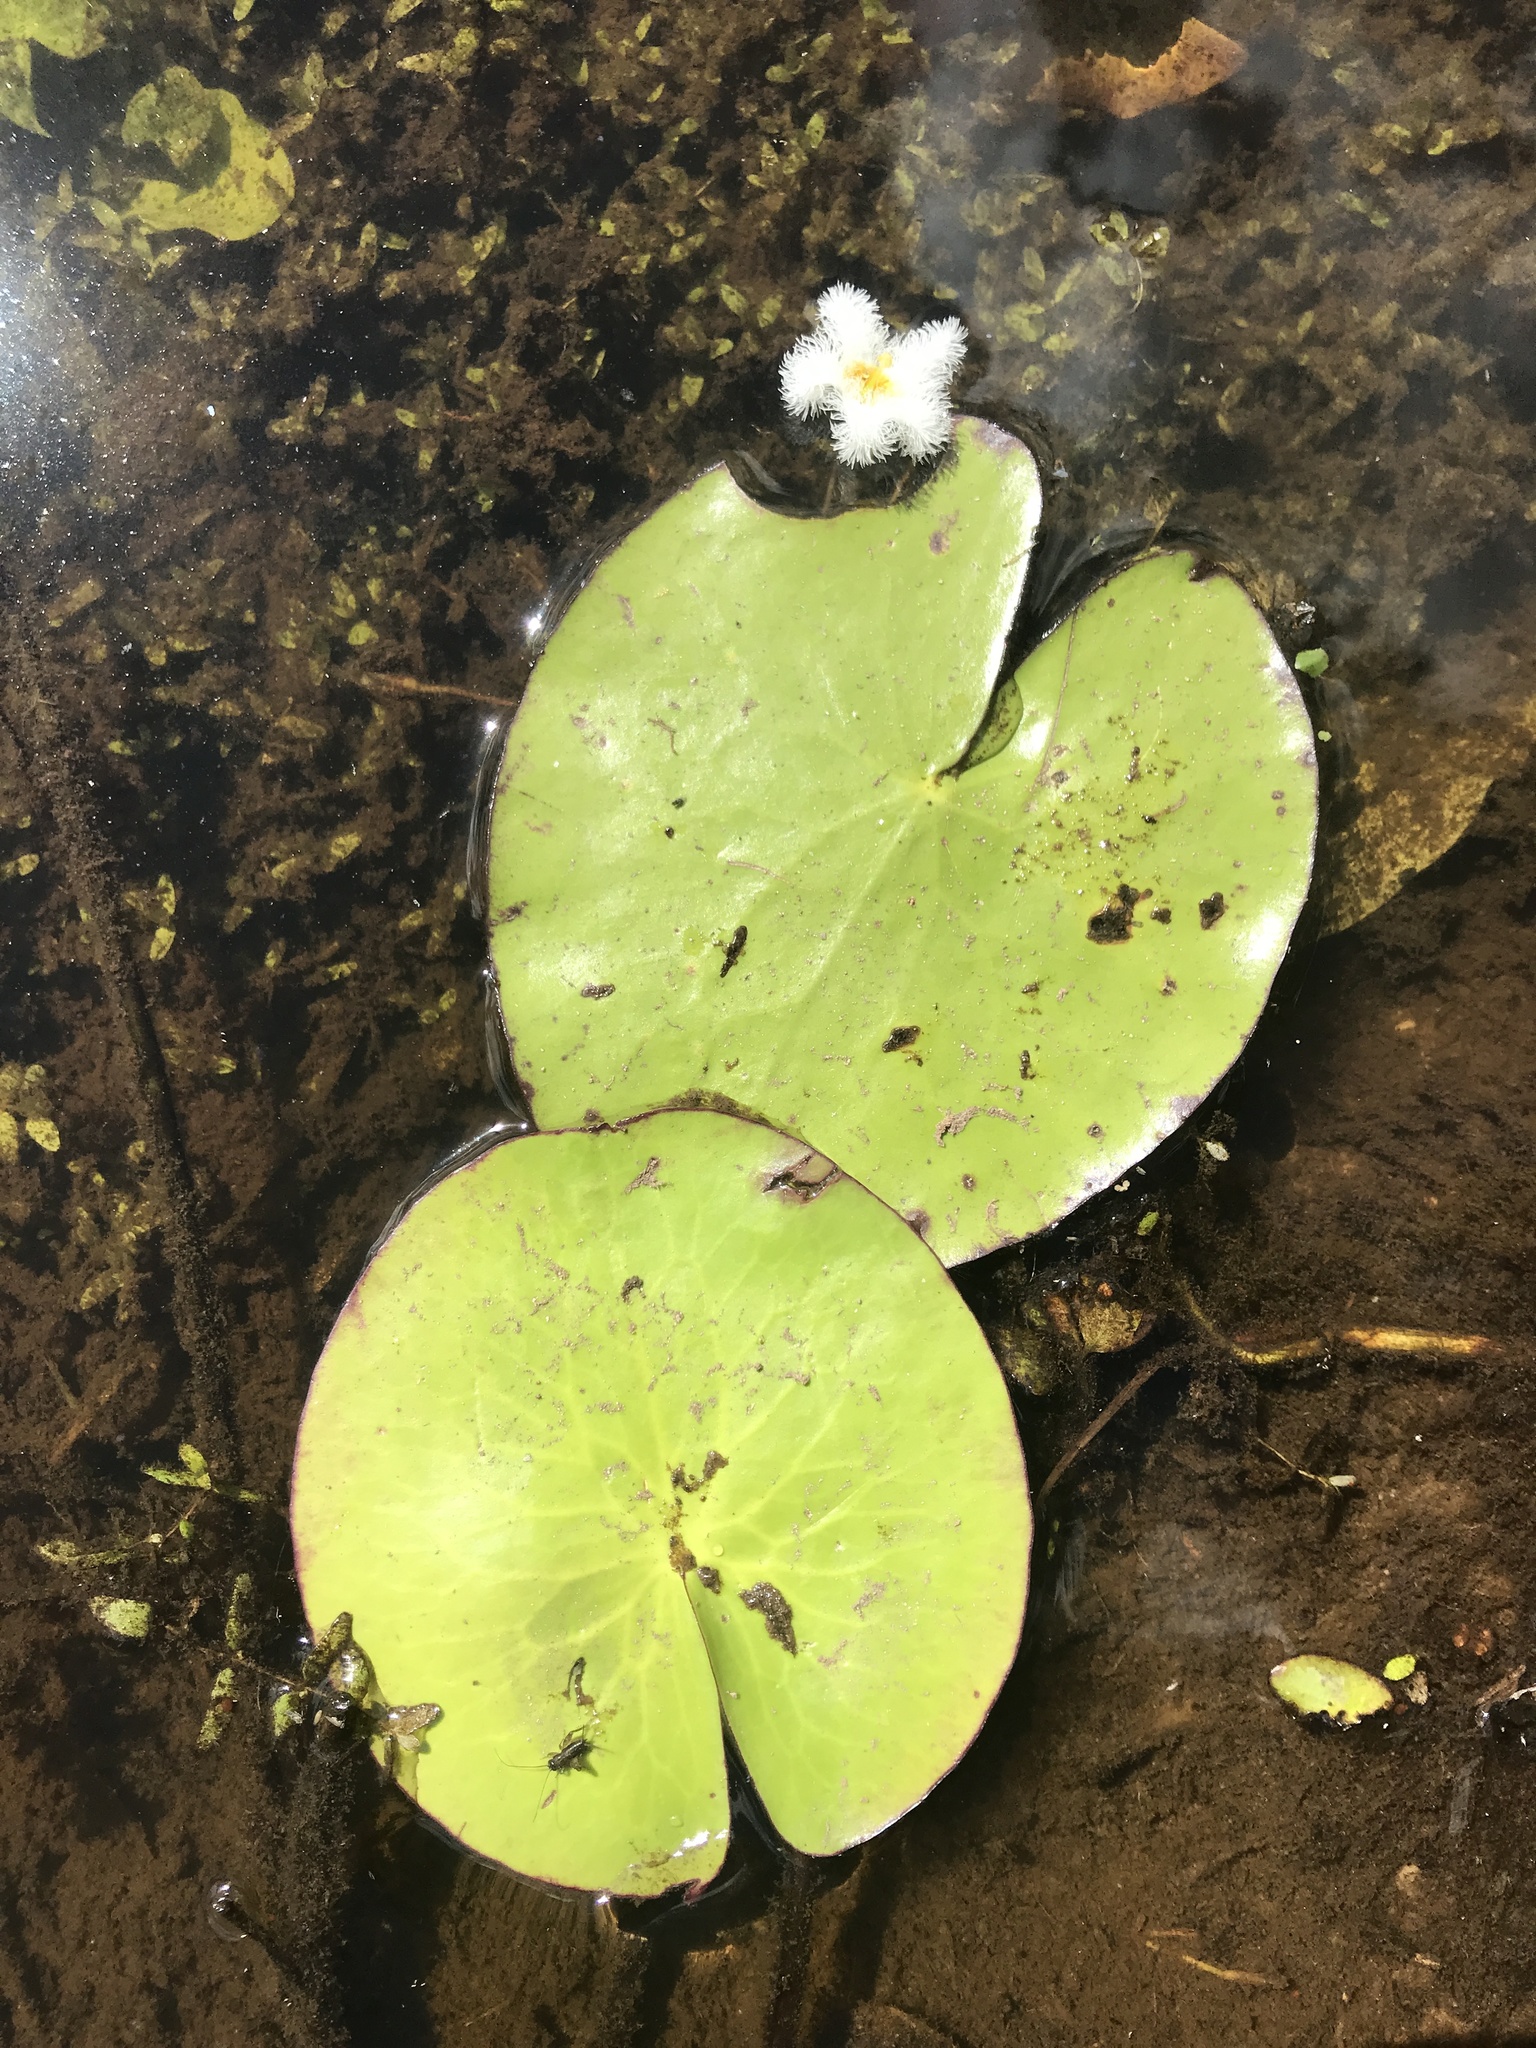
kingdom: Plantae
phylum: Tracheophyta
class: Magnoliopsida
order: Asterales
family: Menyanthaceae
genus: Nymphoides
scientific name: Nymphoides indica
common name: Water-snowflake
